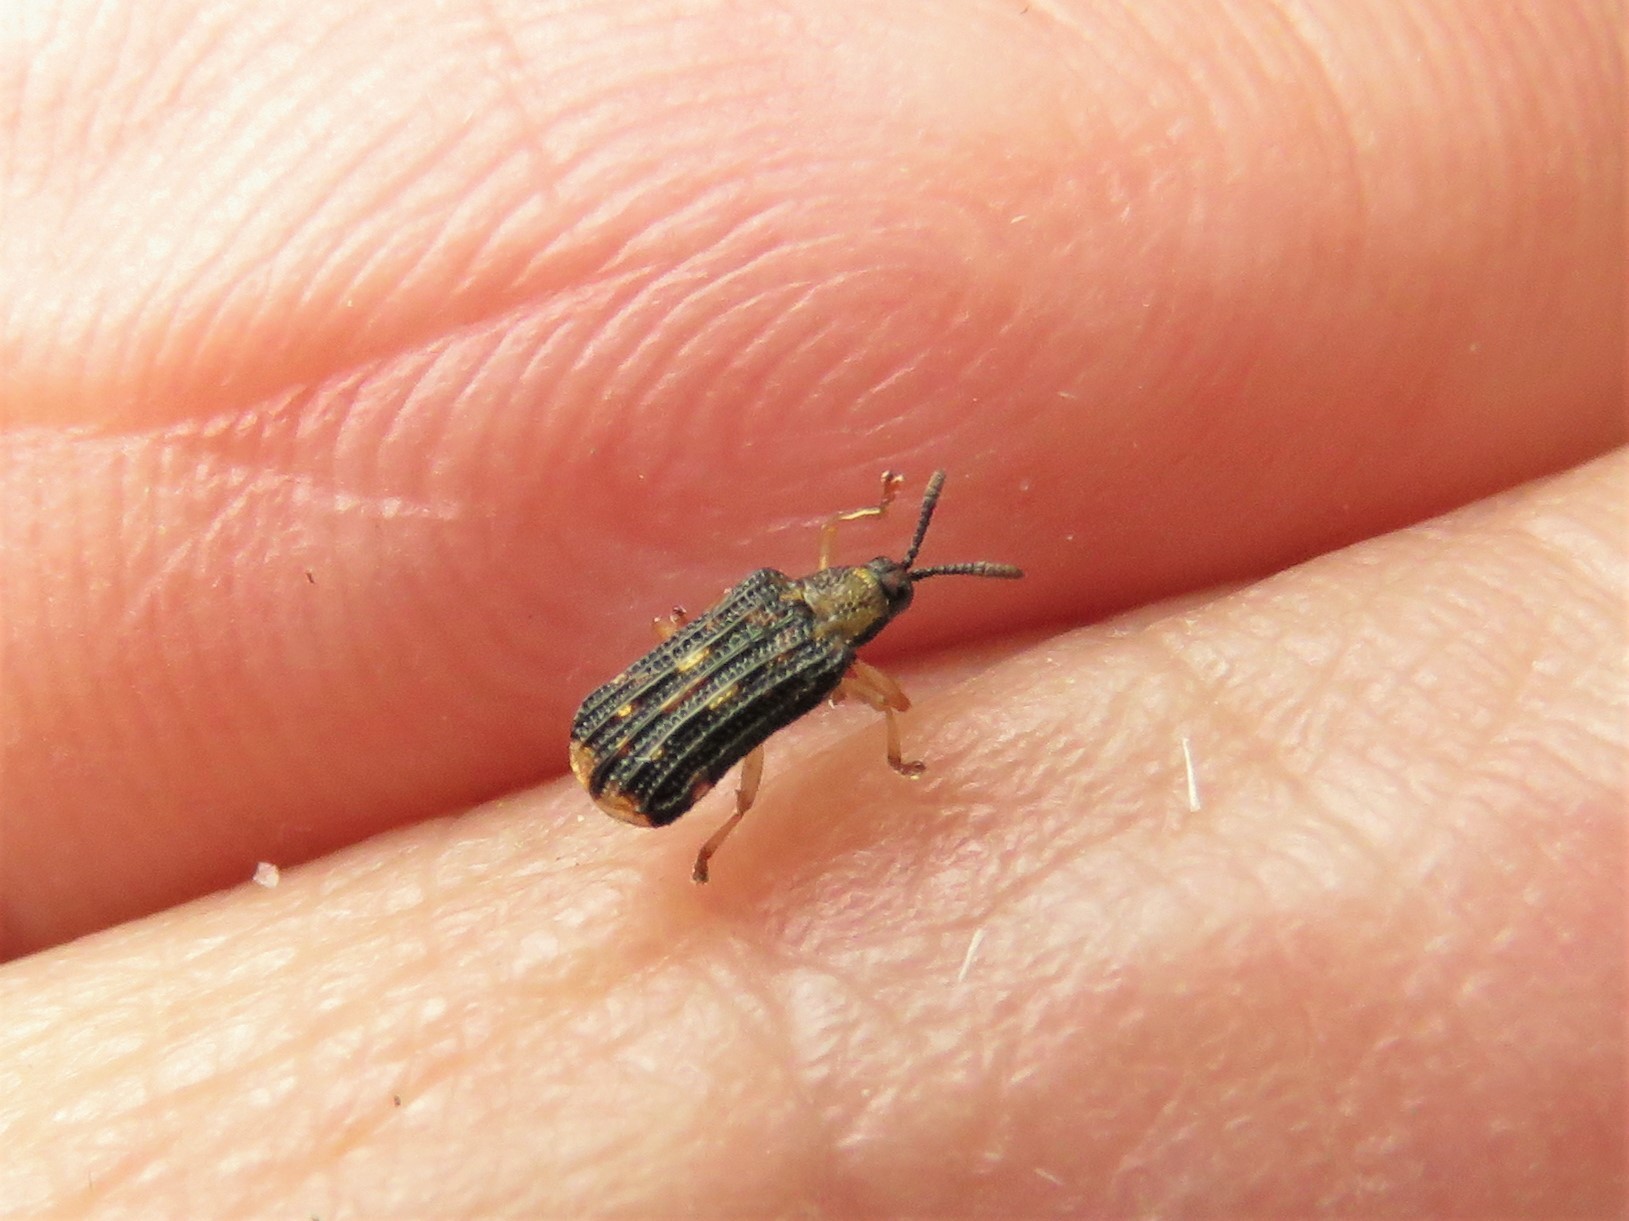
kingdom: Animalia
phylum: Arthropoda
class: Insecta
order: Coleoptera
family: Chrysomelidae
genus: Sumitrosis
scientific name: Sumitrosis inaequalis
